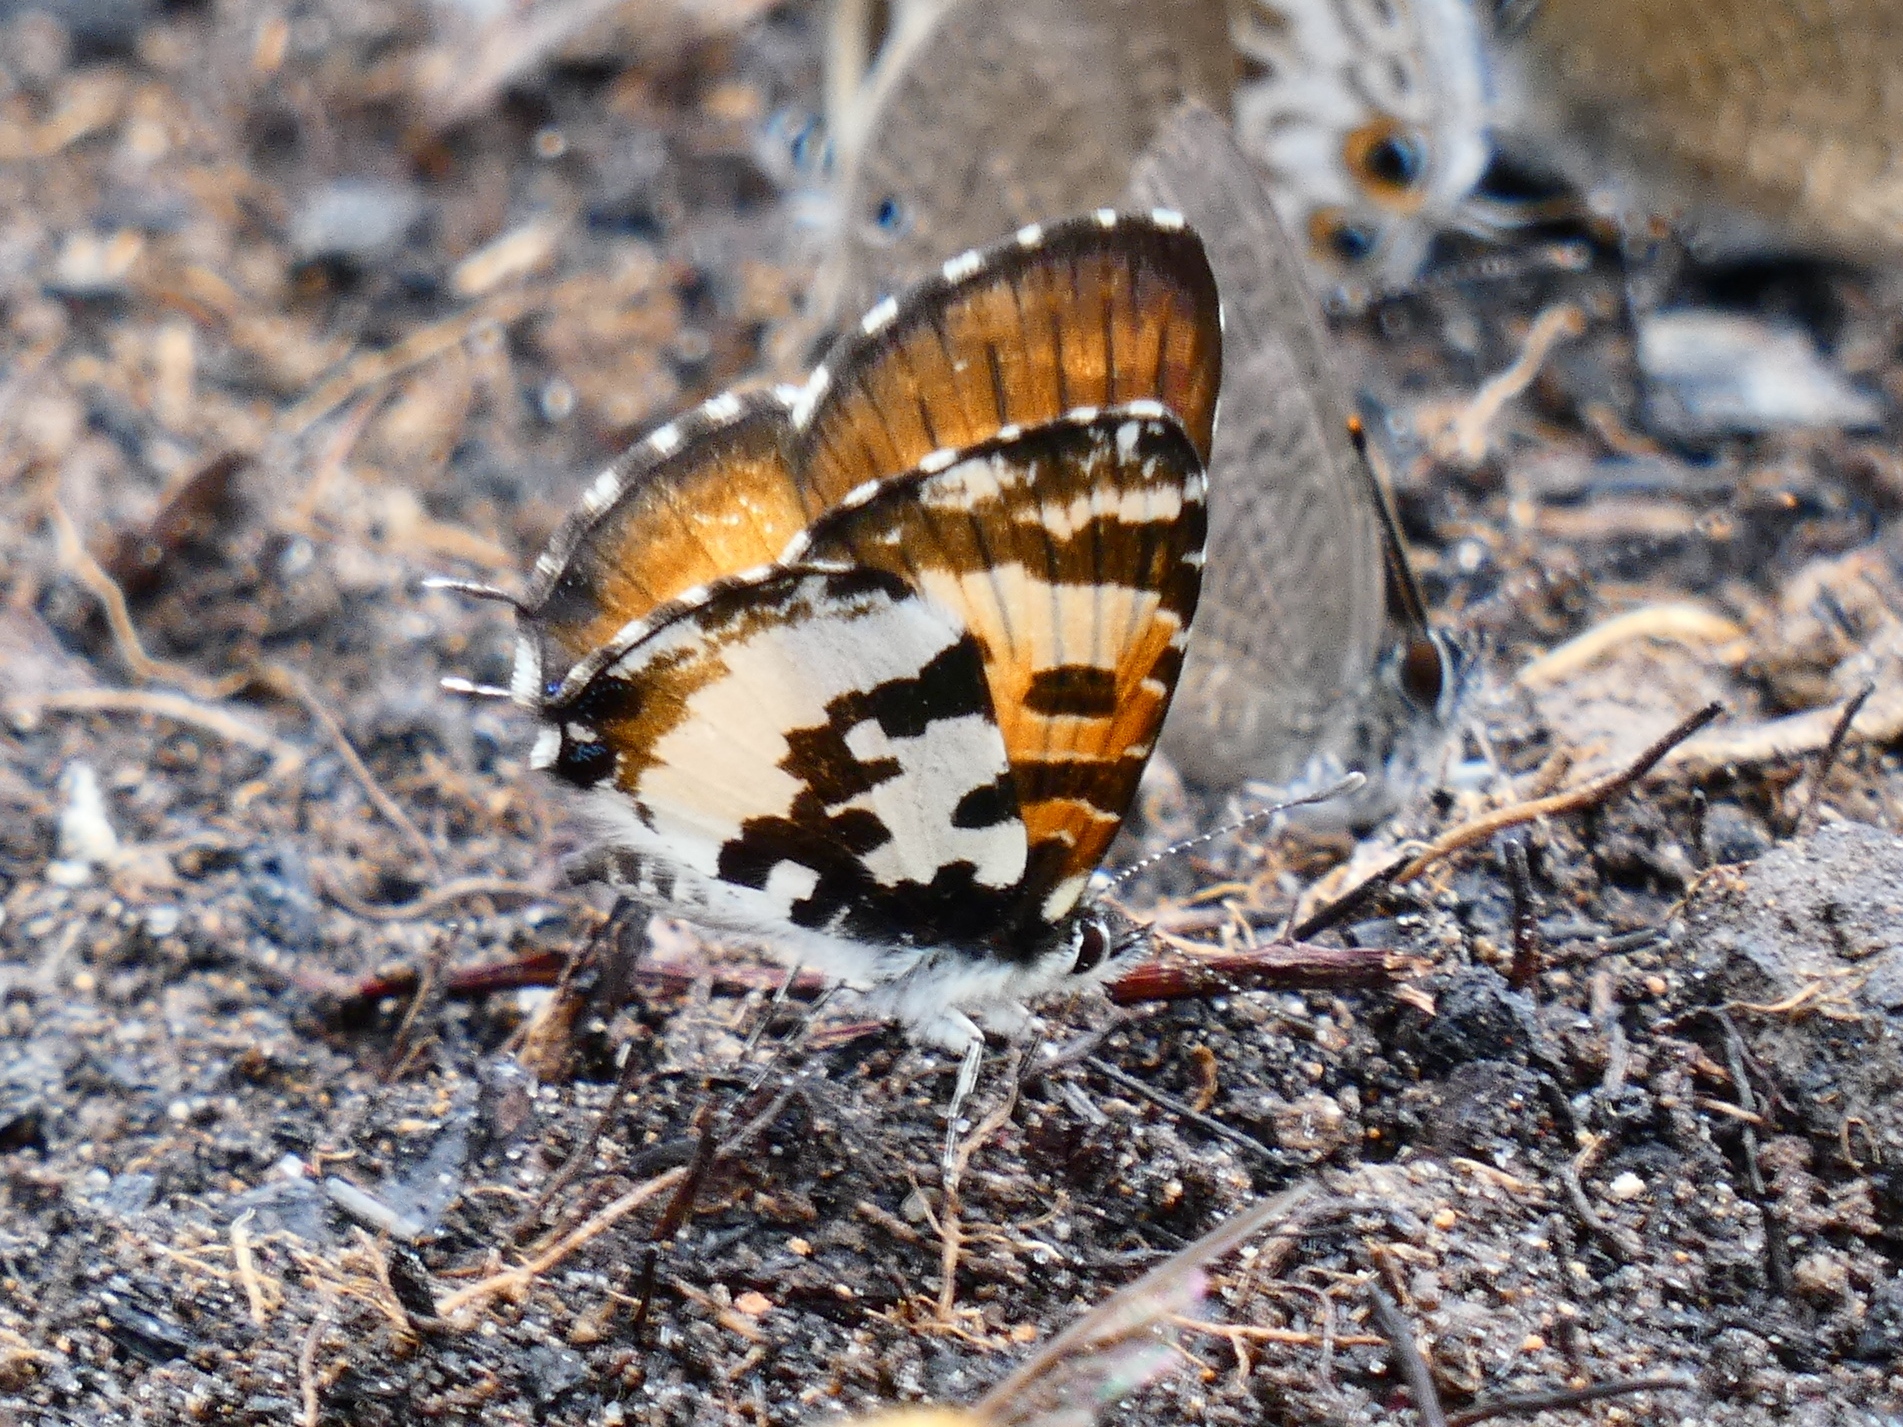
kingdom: Animalia
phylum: Arthropoda
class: Insecta
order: Lepidoptera
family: Lycaenidae
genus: Uranothauma
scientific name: Uranothauma falkensteini
